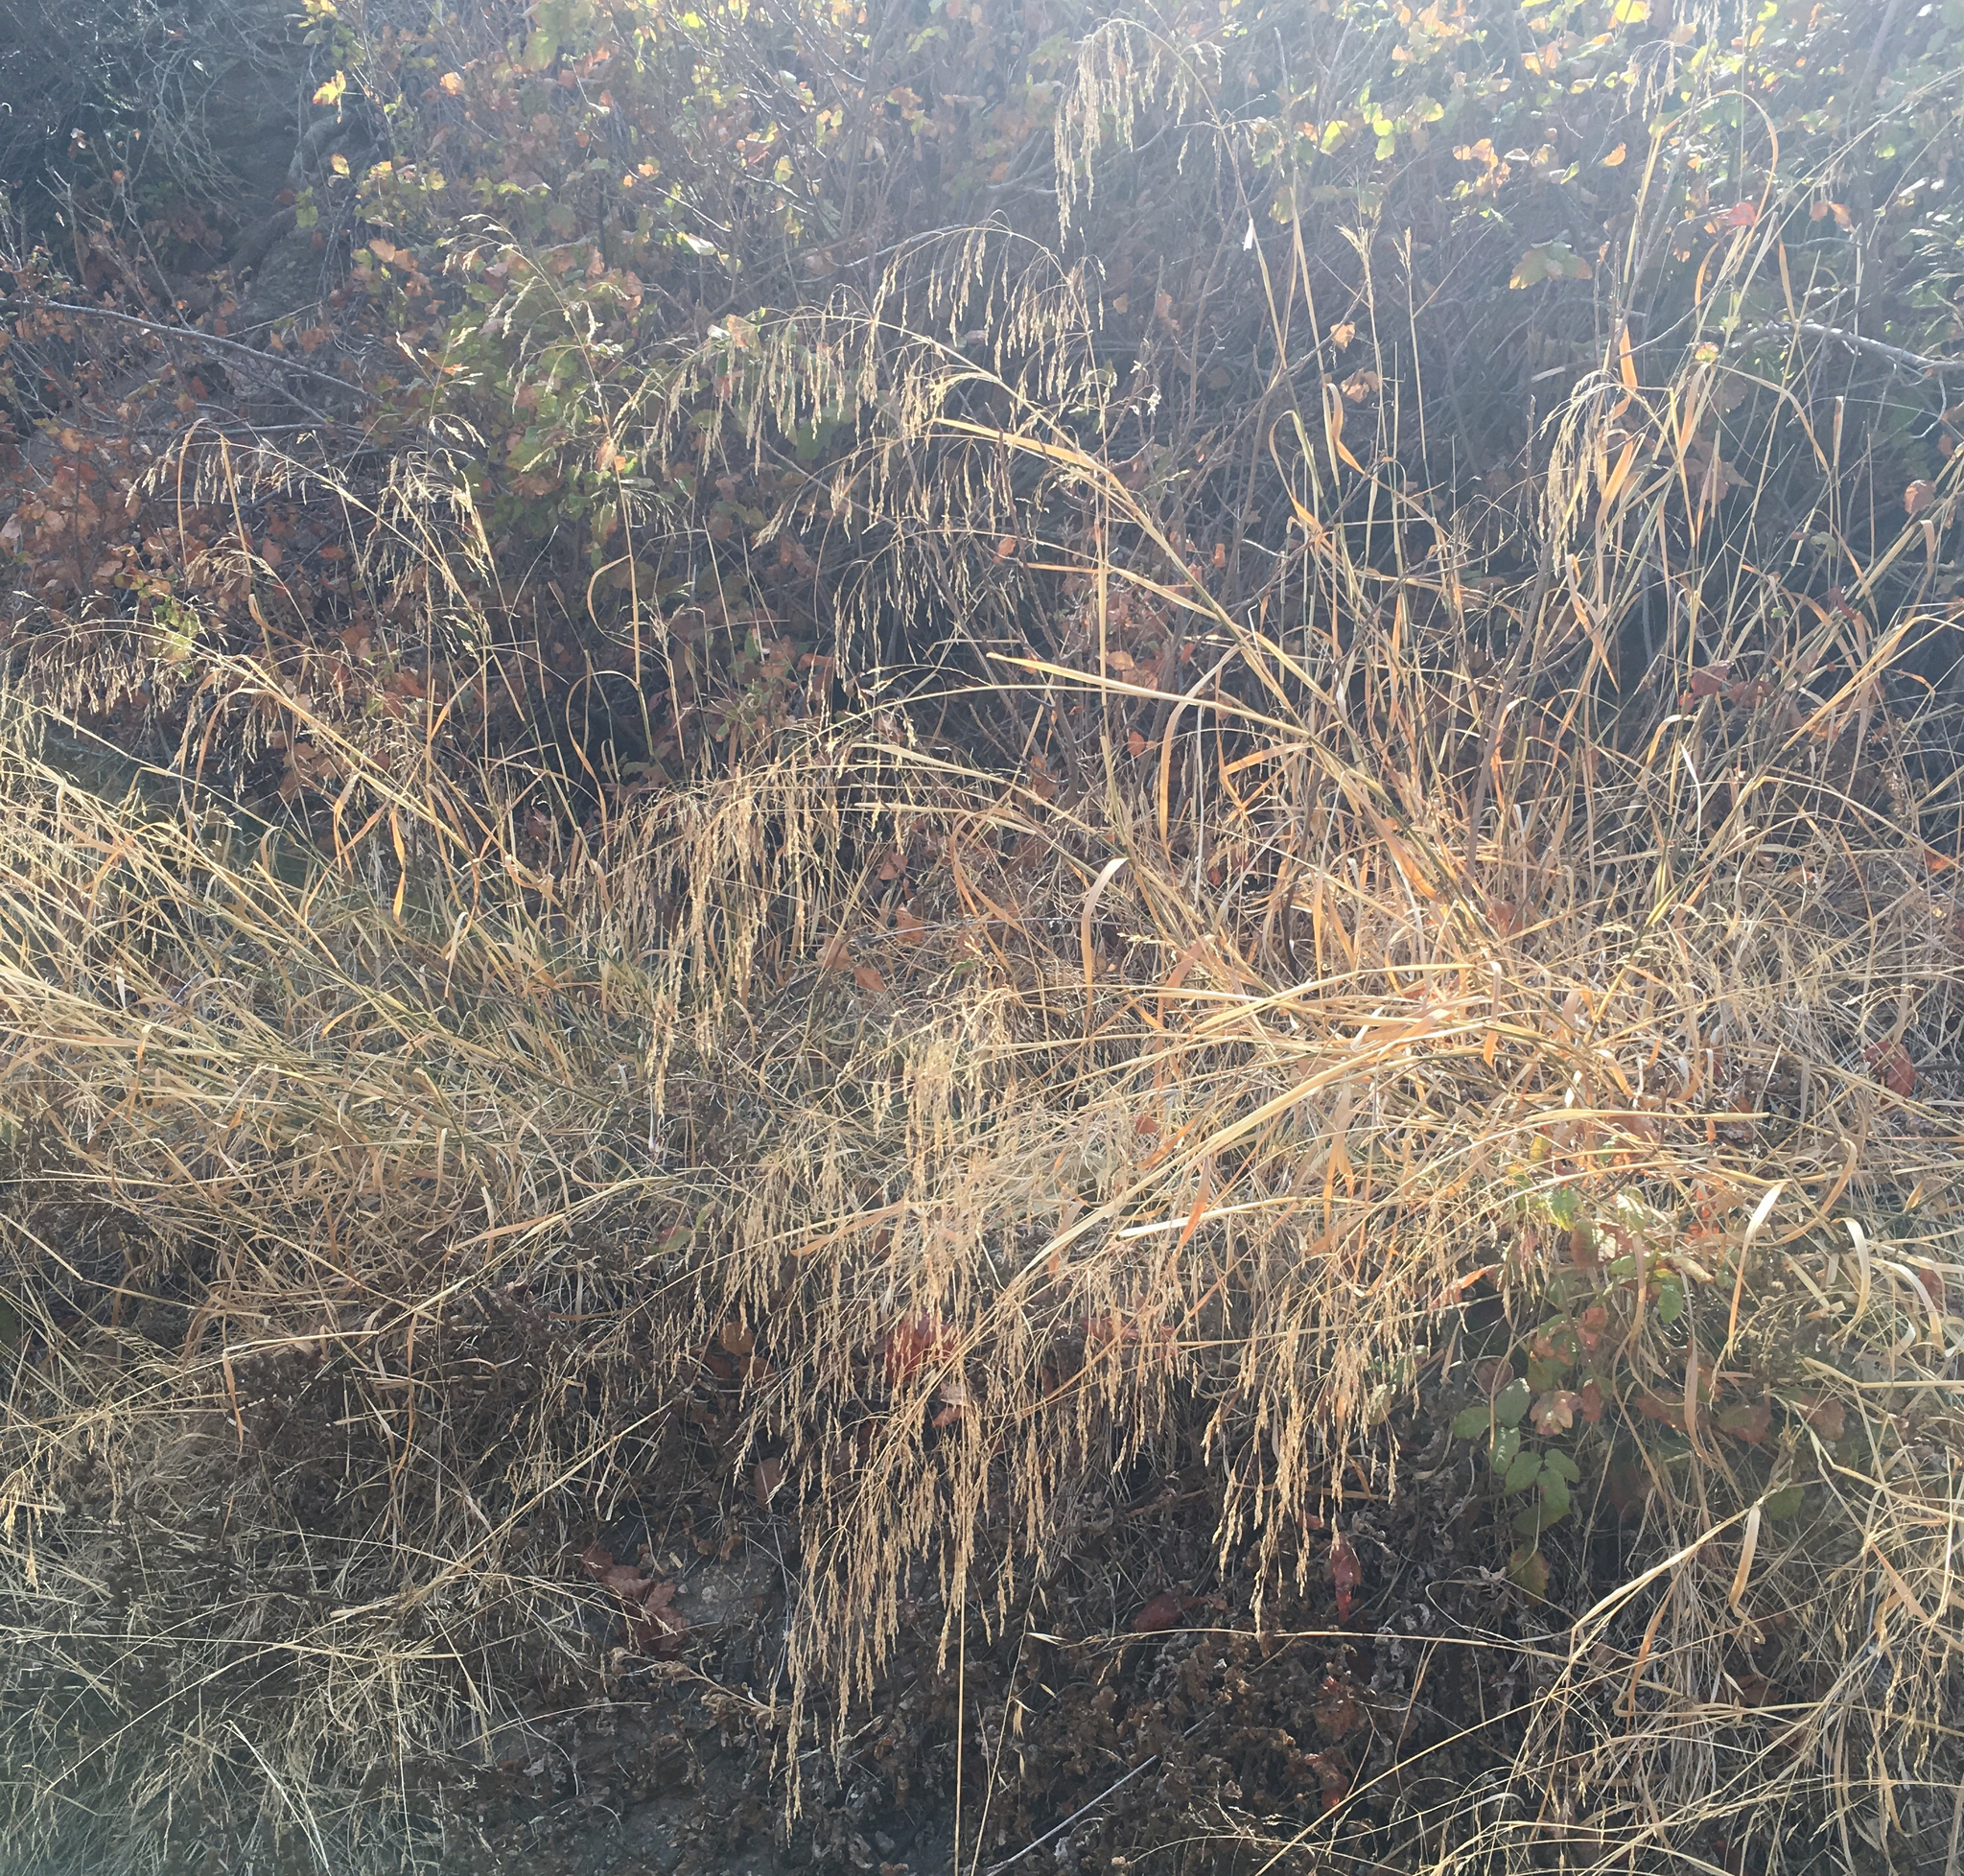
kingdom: Plantae
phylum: Tracheophyta
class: Liliopsida
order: Poales
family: Poaceae
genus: Oloptum
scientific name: Oloptum miliaceum
